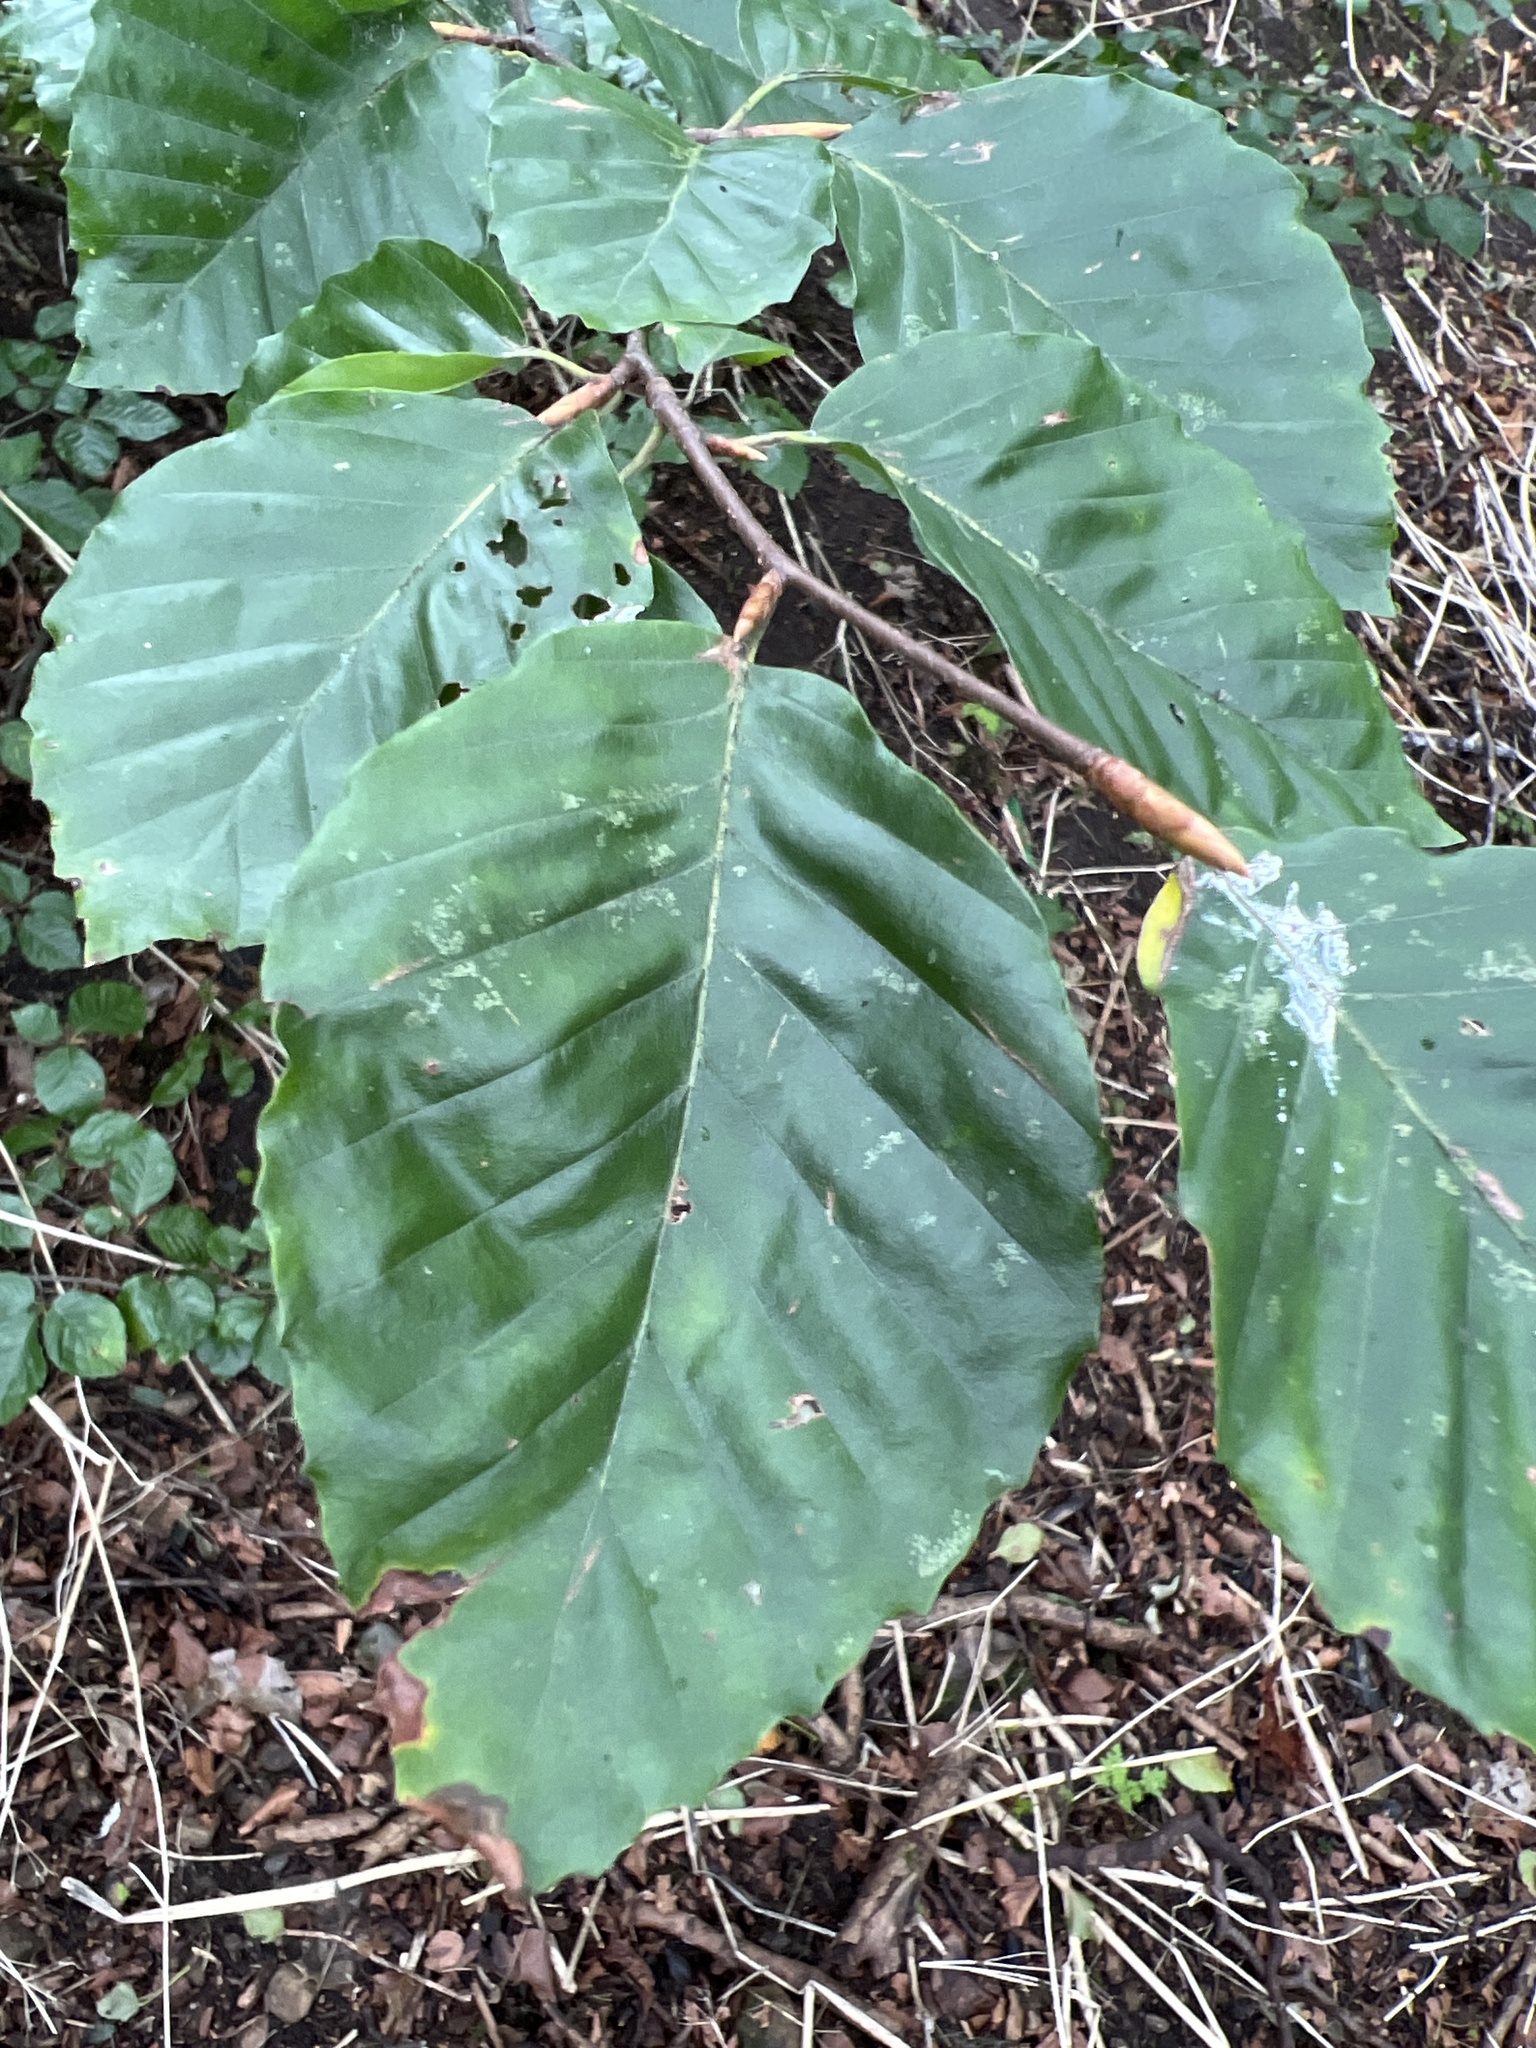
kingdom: Plantae
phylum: Tracheophyta
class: Magnoliopsida
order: Fagales
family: Fagaceae
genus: Fagus
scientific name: Fagus sylvatica
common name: Beech
